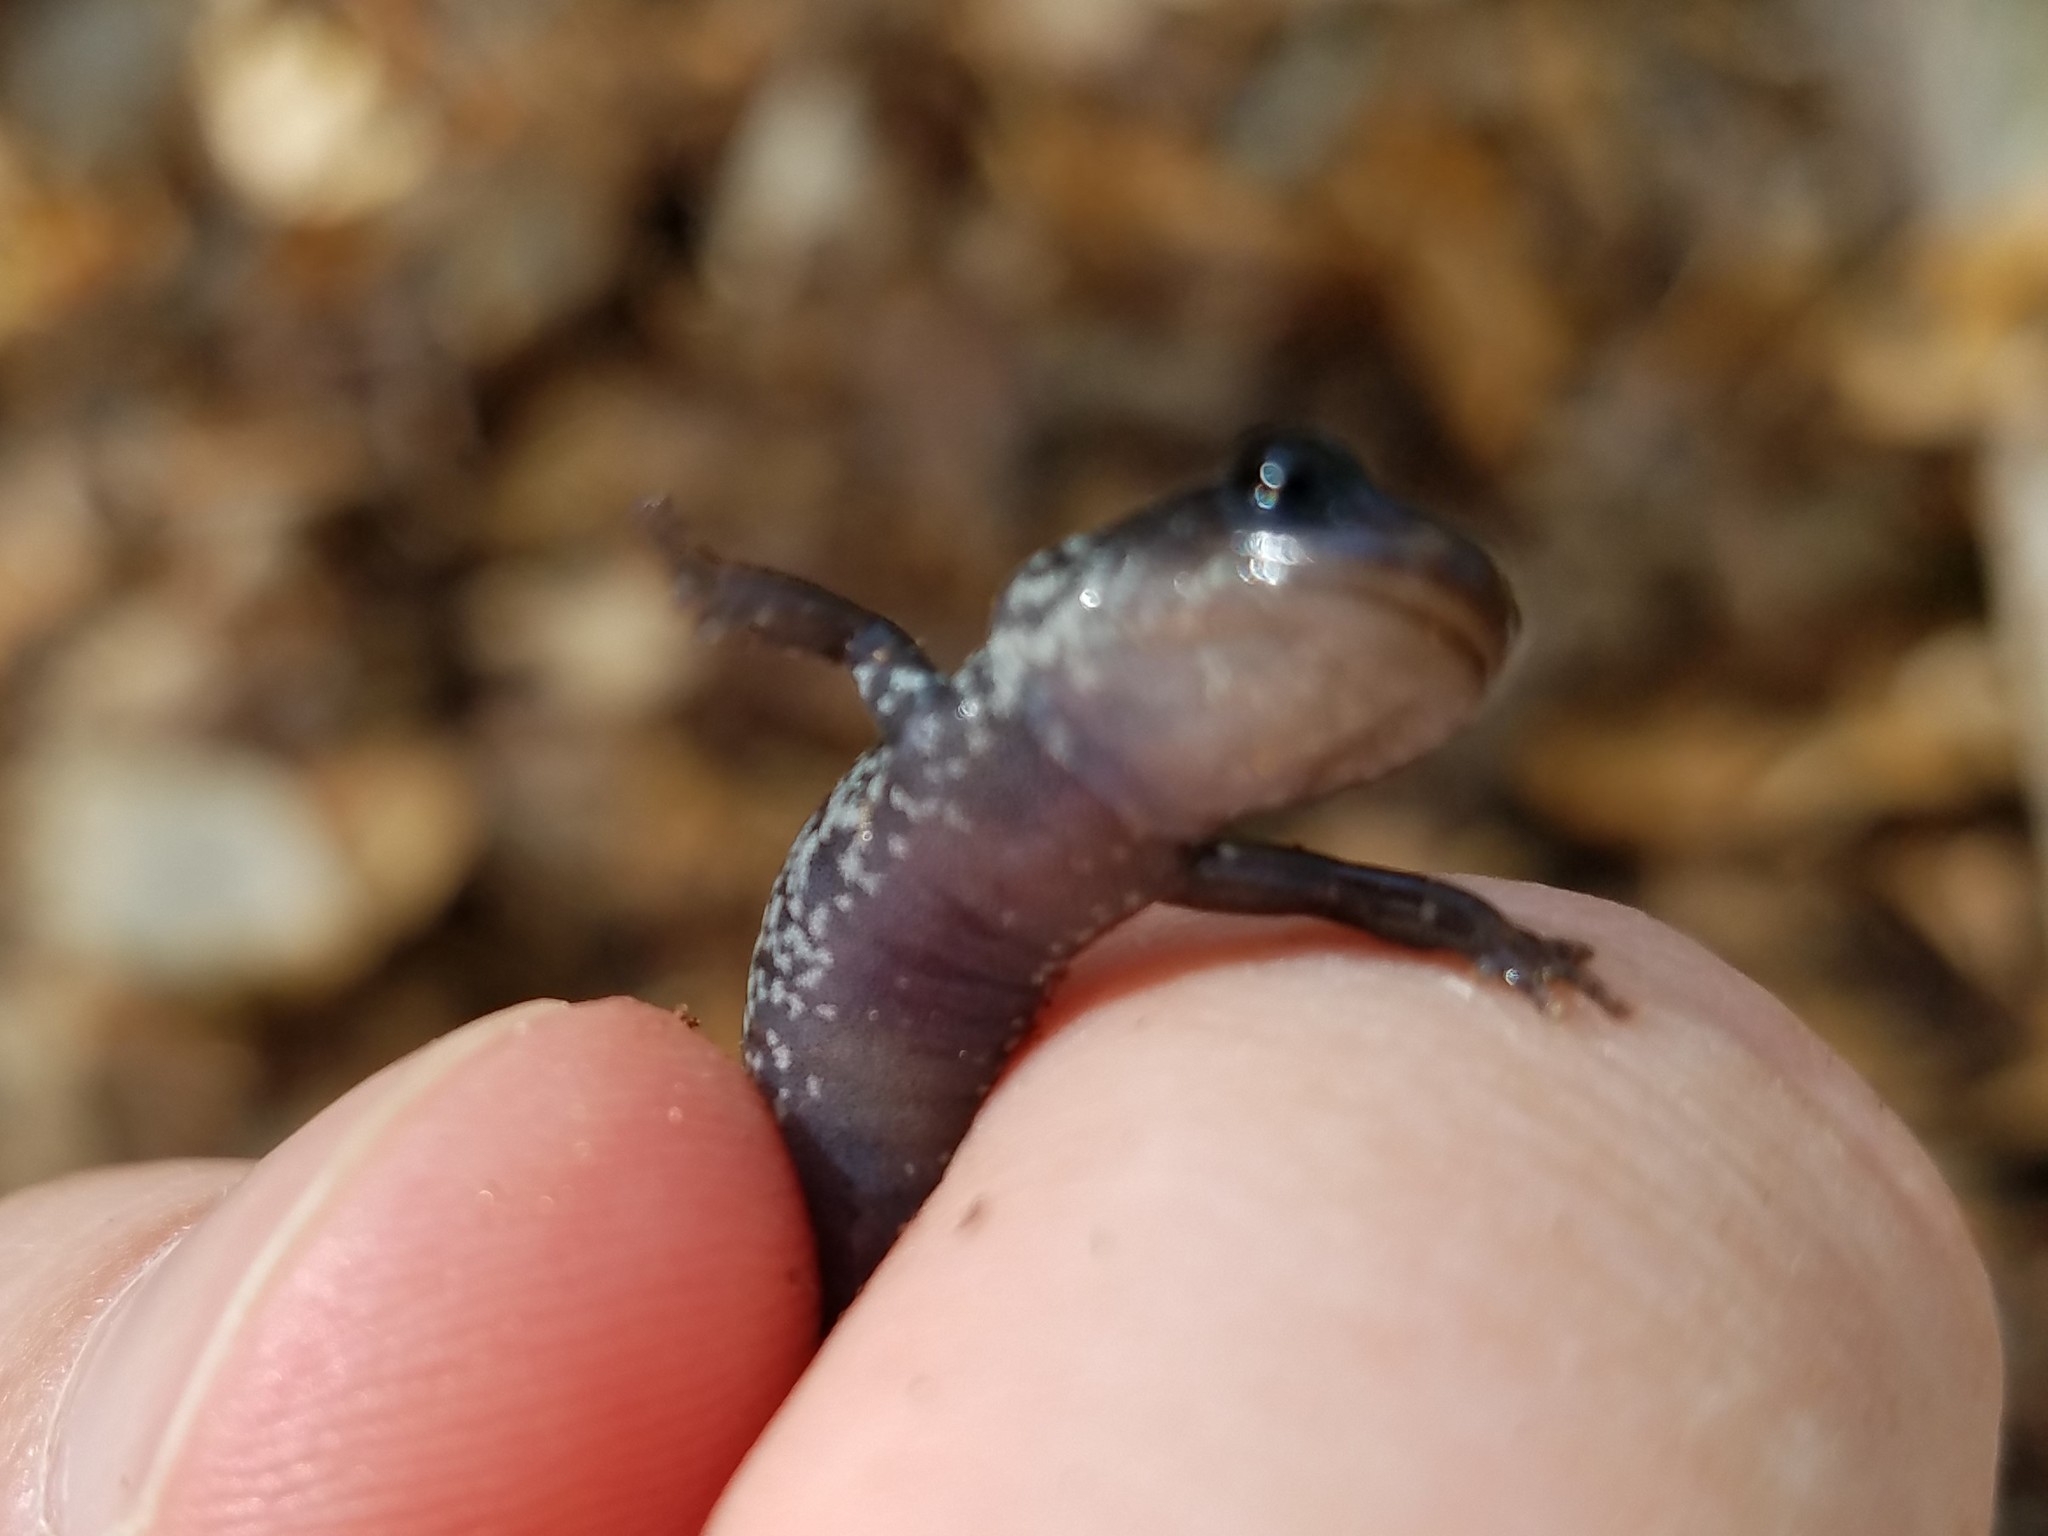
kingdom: Animalia
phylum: Chordata
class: Amphibia
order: Caudata
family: Plethodontidae
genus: Plethodon
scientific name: Plethodon chattahoochee
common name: Chattahoochee slimy salamander
